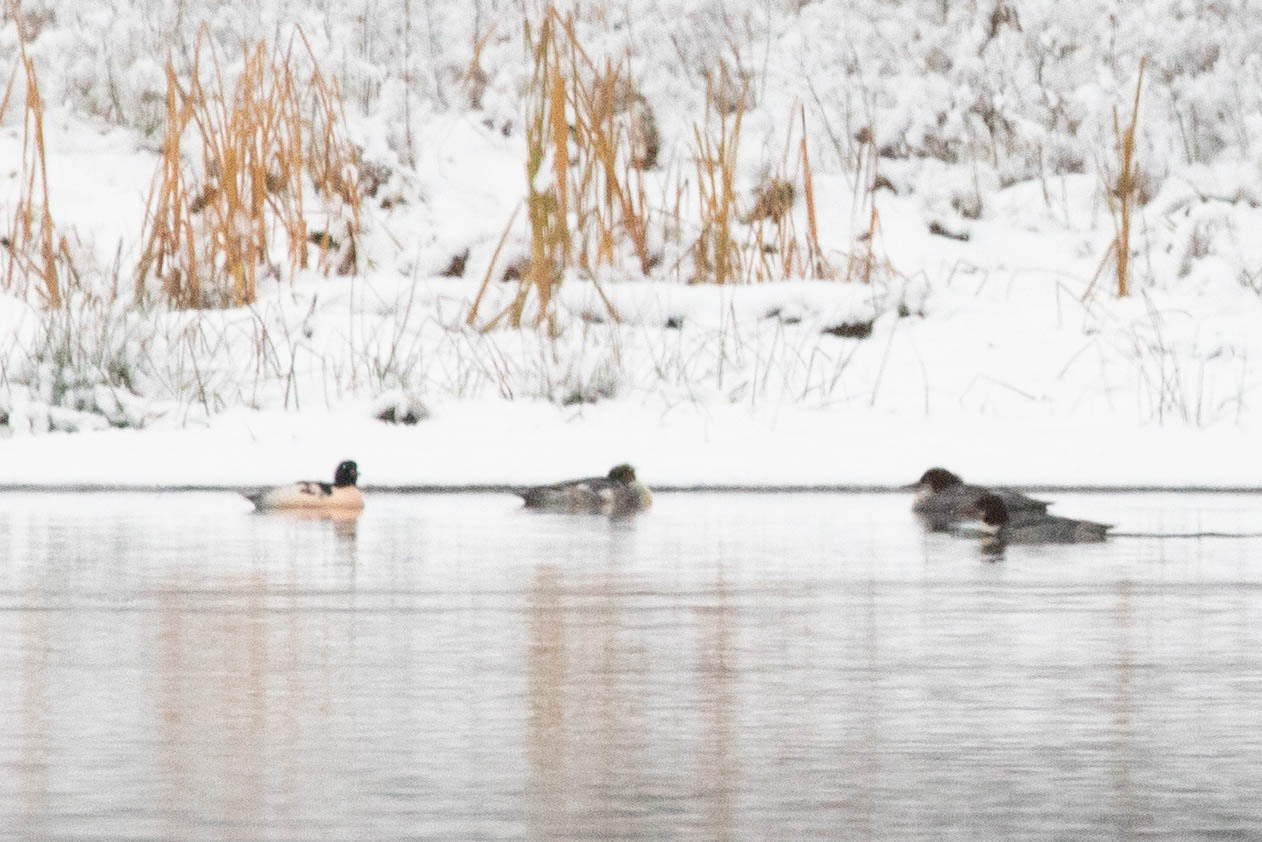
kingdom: Animalia
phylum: Chordata
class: Aves
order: Anseriformes
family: Anatidae
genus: Mergus
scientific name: Mergus merganser
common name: Common merganser
